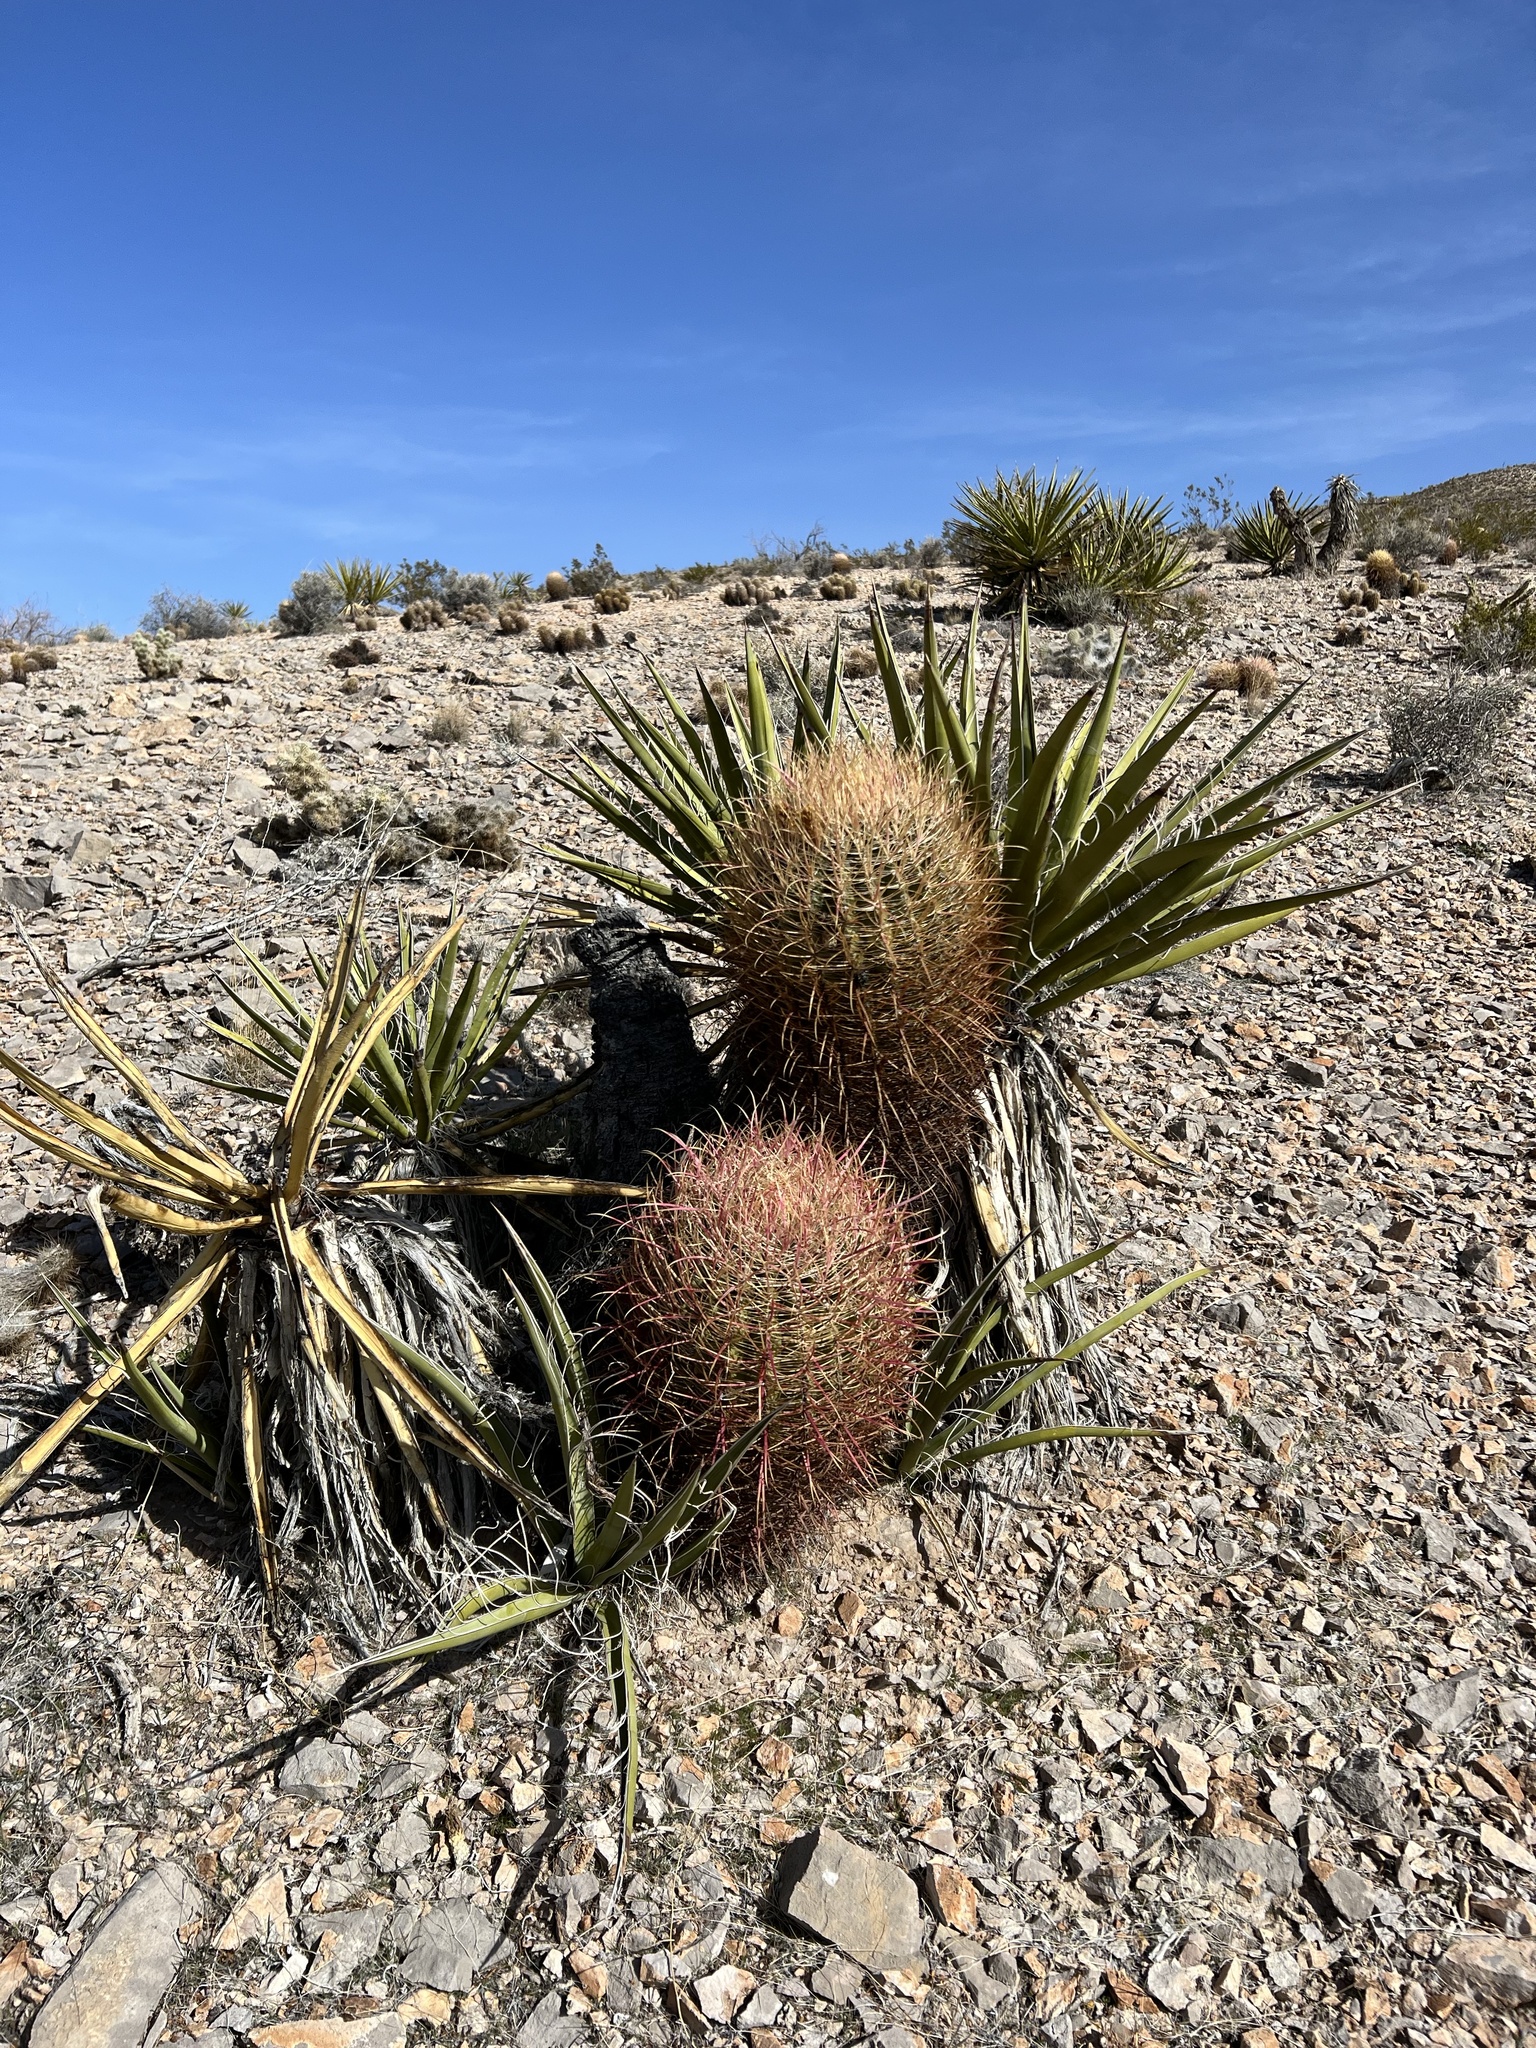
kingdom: Plantae
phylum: Tracheophyta
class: Magnoliopsida
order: Caryophyllales
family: Cactaceae
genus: Ferocactus
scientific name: Ferocactus cylindraceus
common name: California barrel cactus
